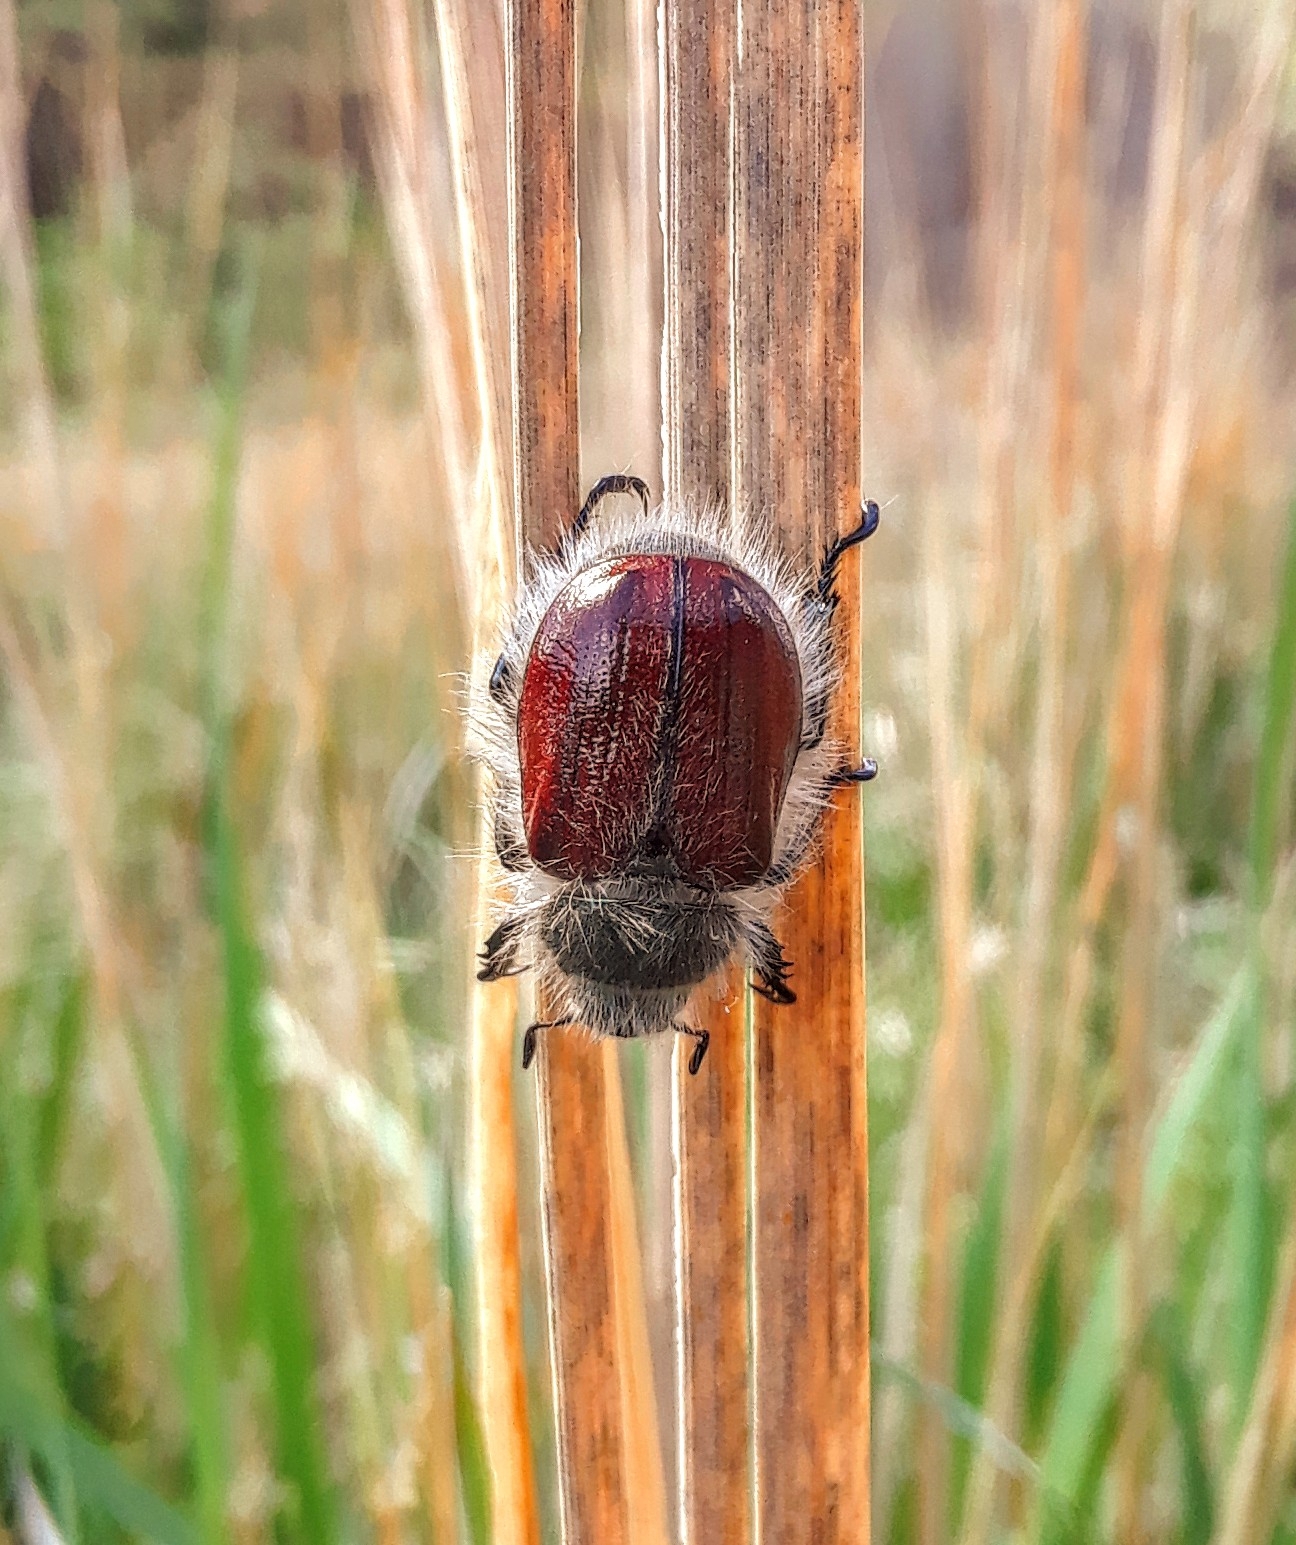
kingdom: Animalia
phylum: Arthropoda
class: Insecta
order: Coleoptera
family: Scarabaeidae
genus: Paracotalpa
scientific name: Paracotalpa granicollis
